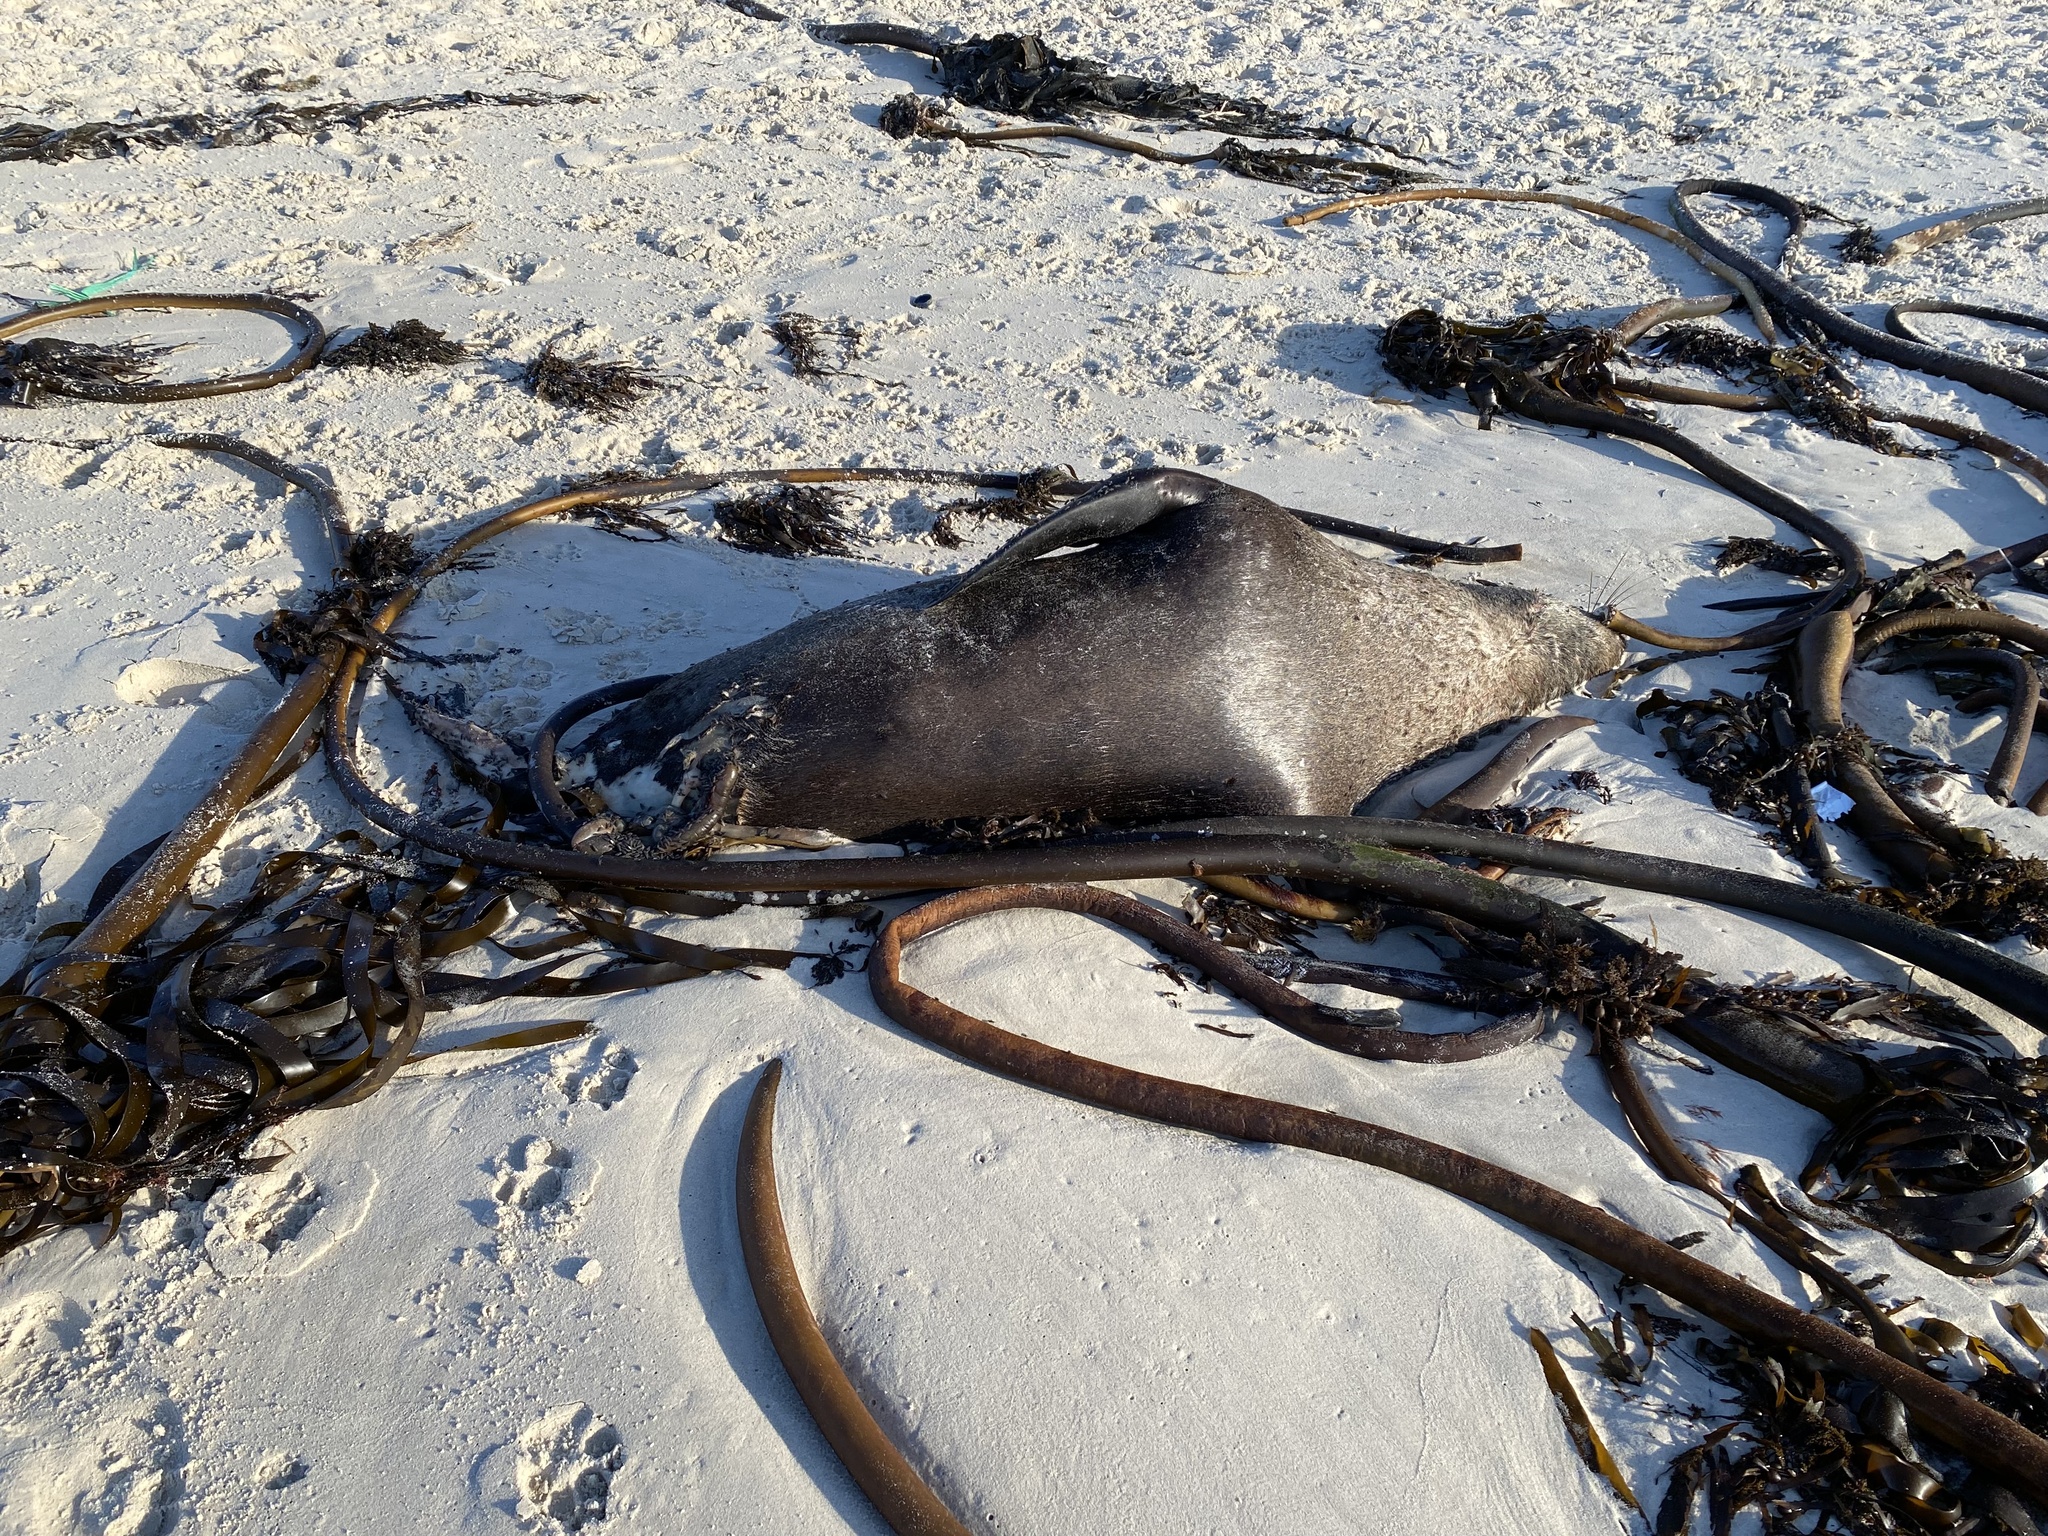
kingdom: Animalia
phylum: Chordata
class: Mammalia
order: Carnivora
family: Otariidae
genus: Arctocephalus
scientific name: Arctocephalus pusillus
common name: Brown fur seal
